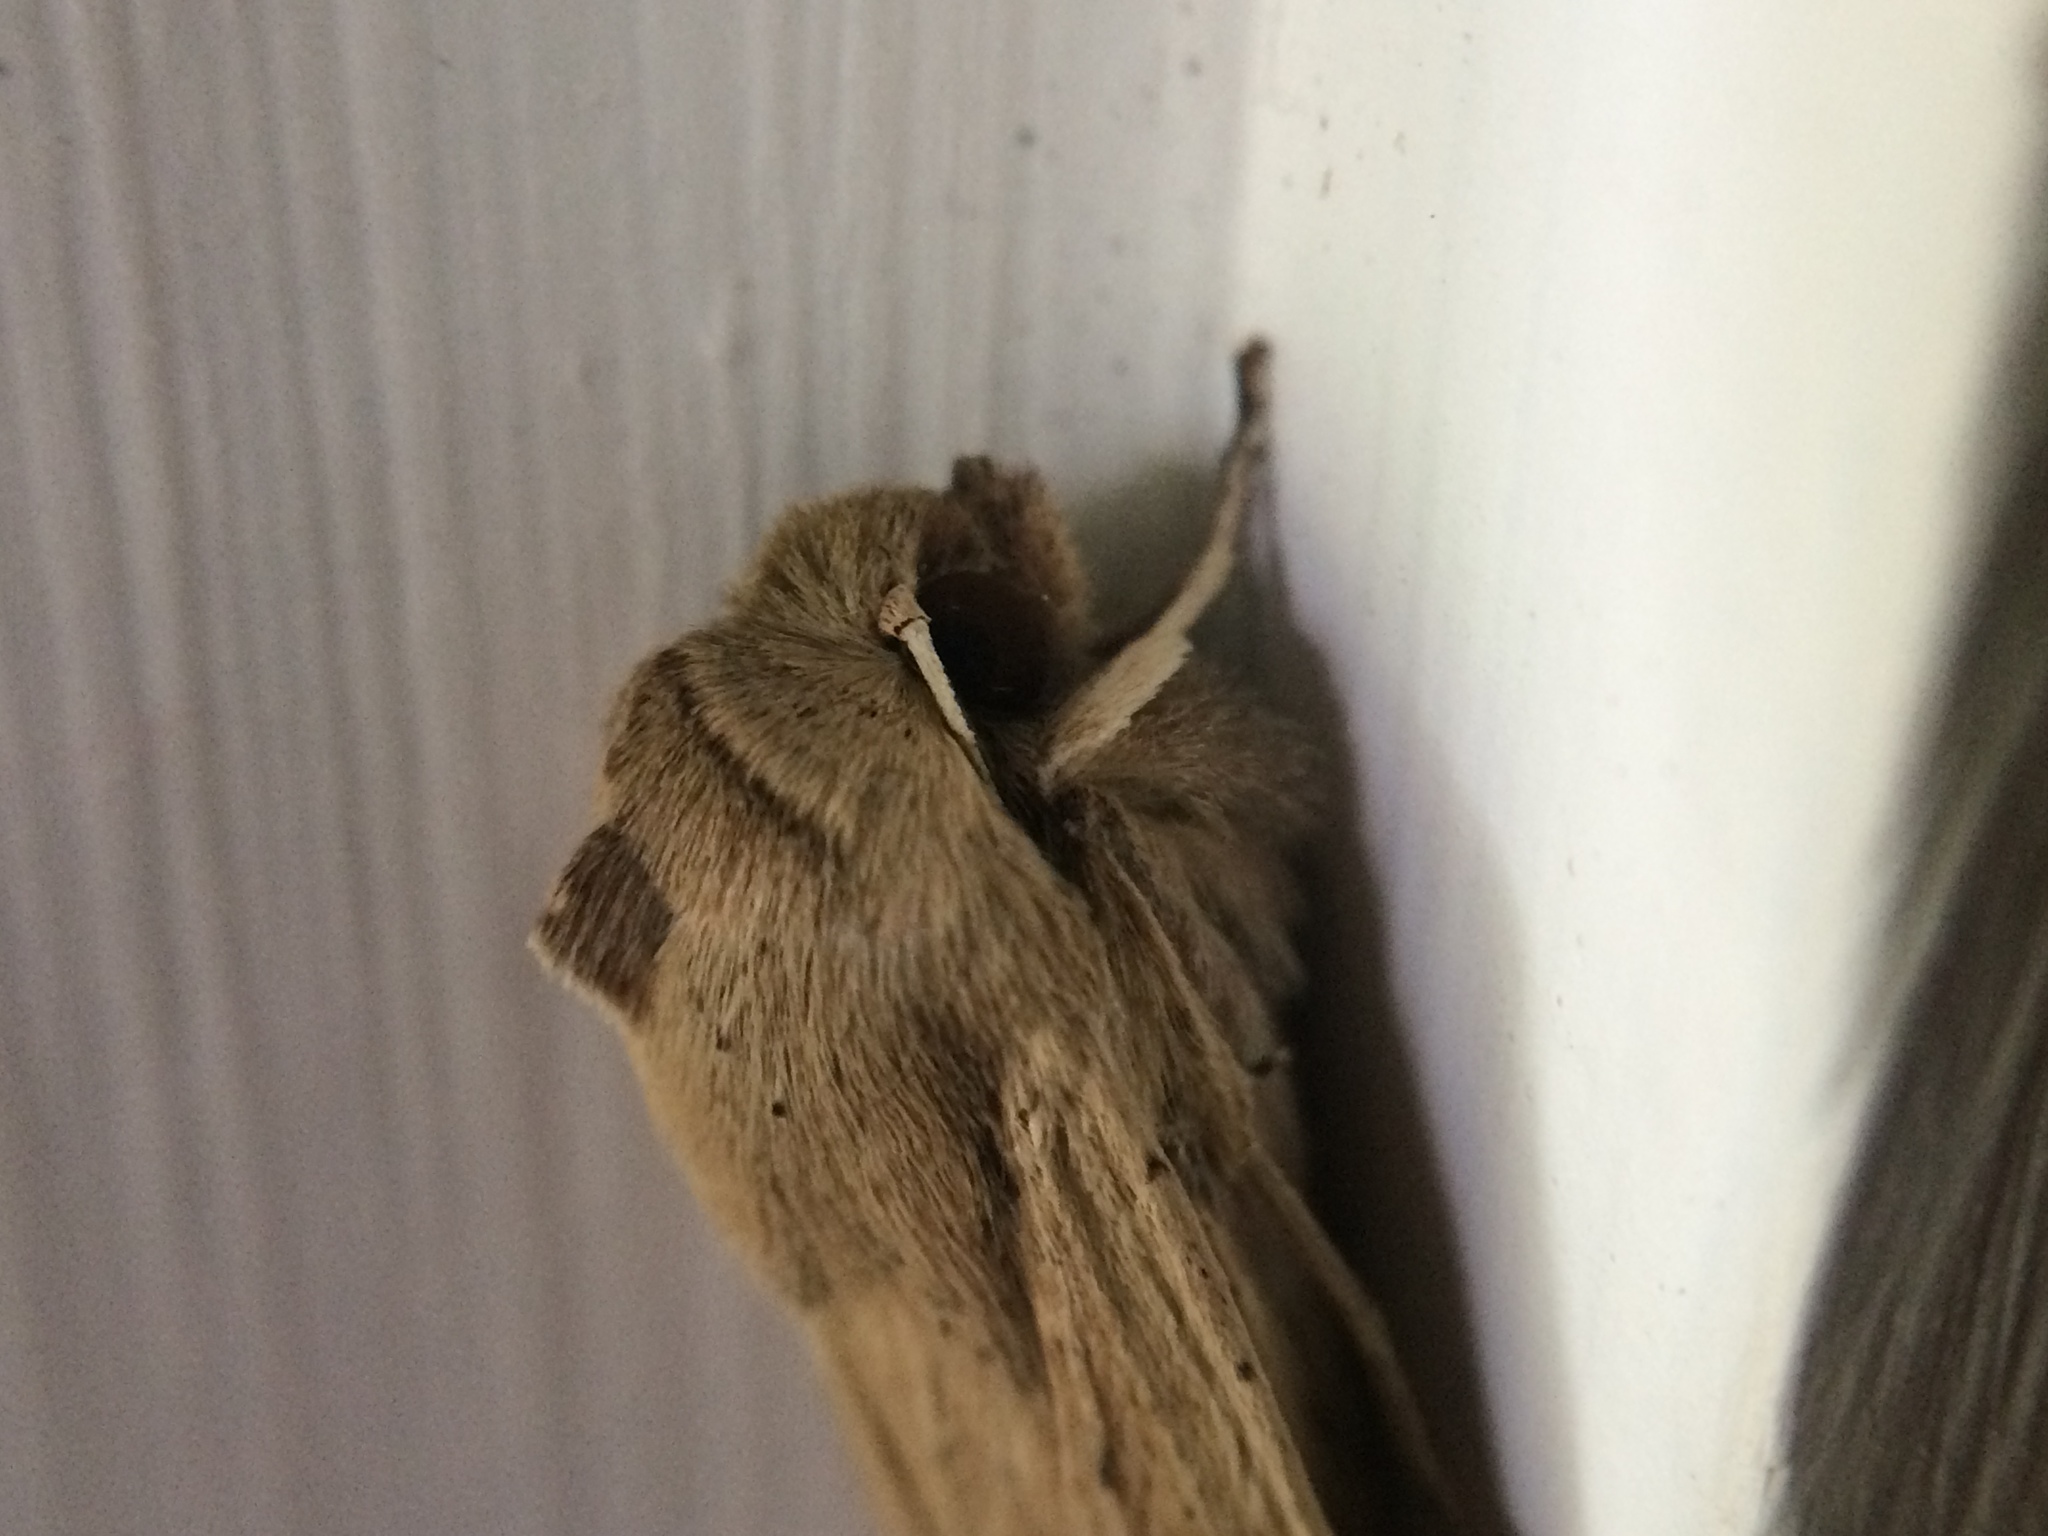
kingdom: Animalia
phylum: Arthropoda
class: Insecta
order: Lepidoptera
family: Noctuidae
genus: Mythimna
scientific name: Mythimna unipuncta
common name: White-speck
